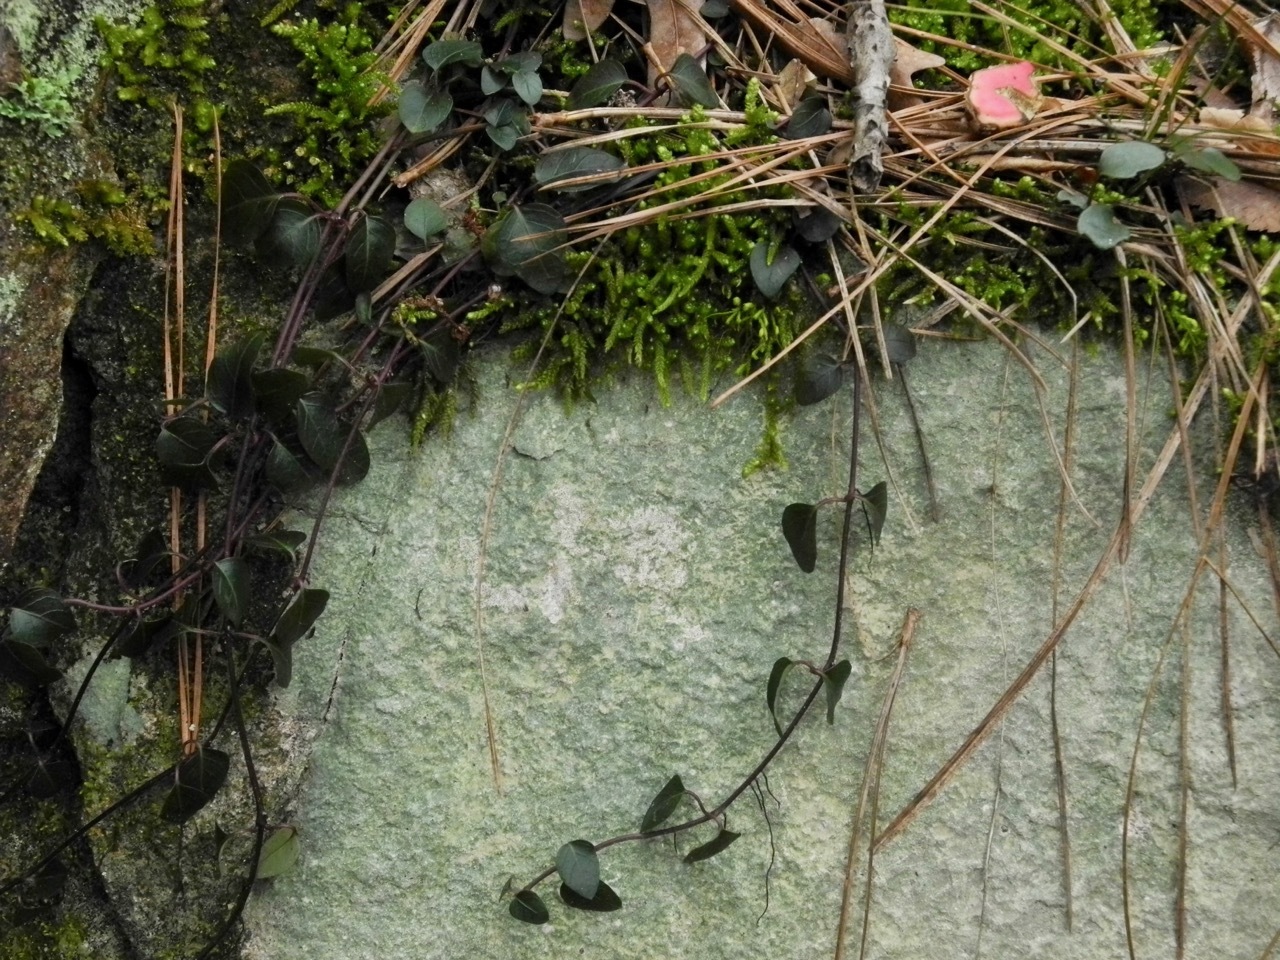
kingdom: Plantae
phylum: Tracheophyta
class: Magnoliopsida
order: Gentianales
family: Rubiaceae
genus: Mitchella
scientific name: Mitchella repens
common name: Partridge-berry
